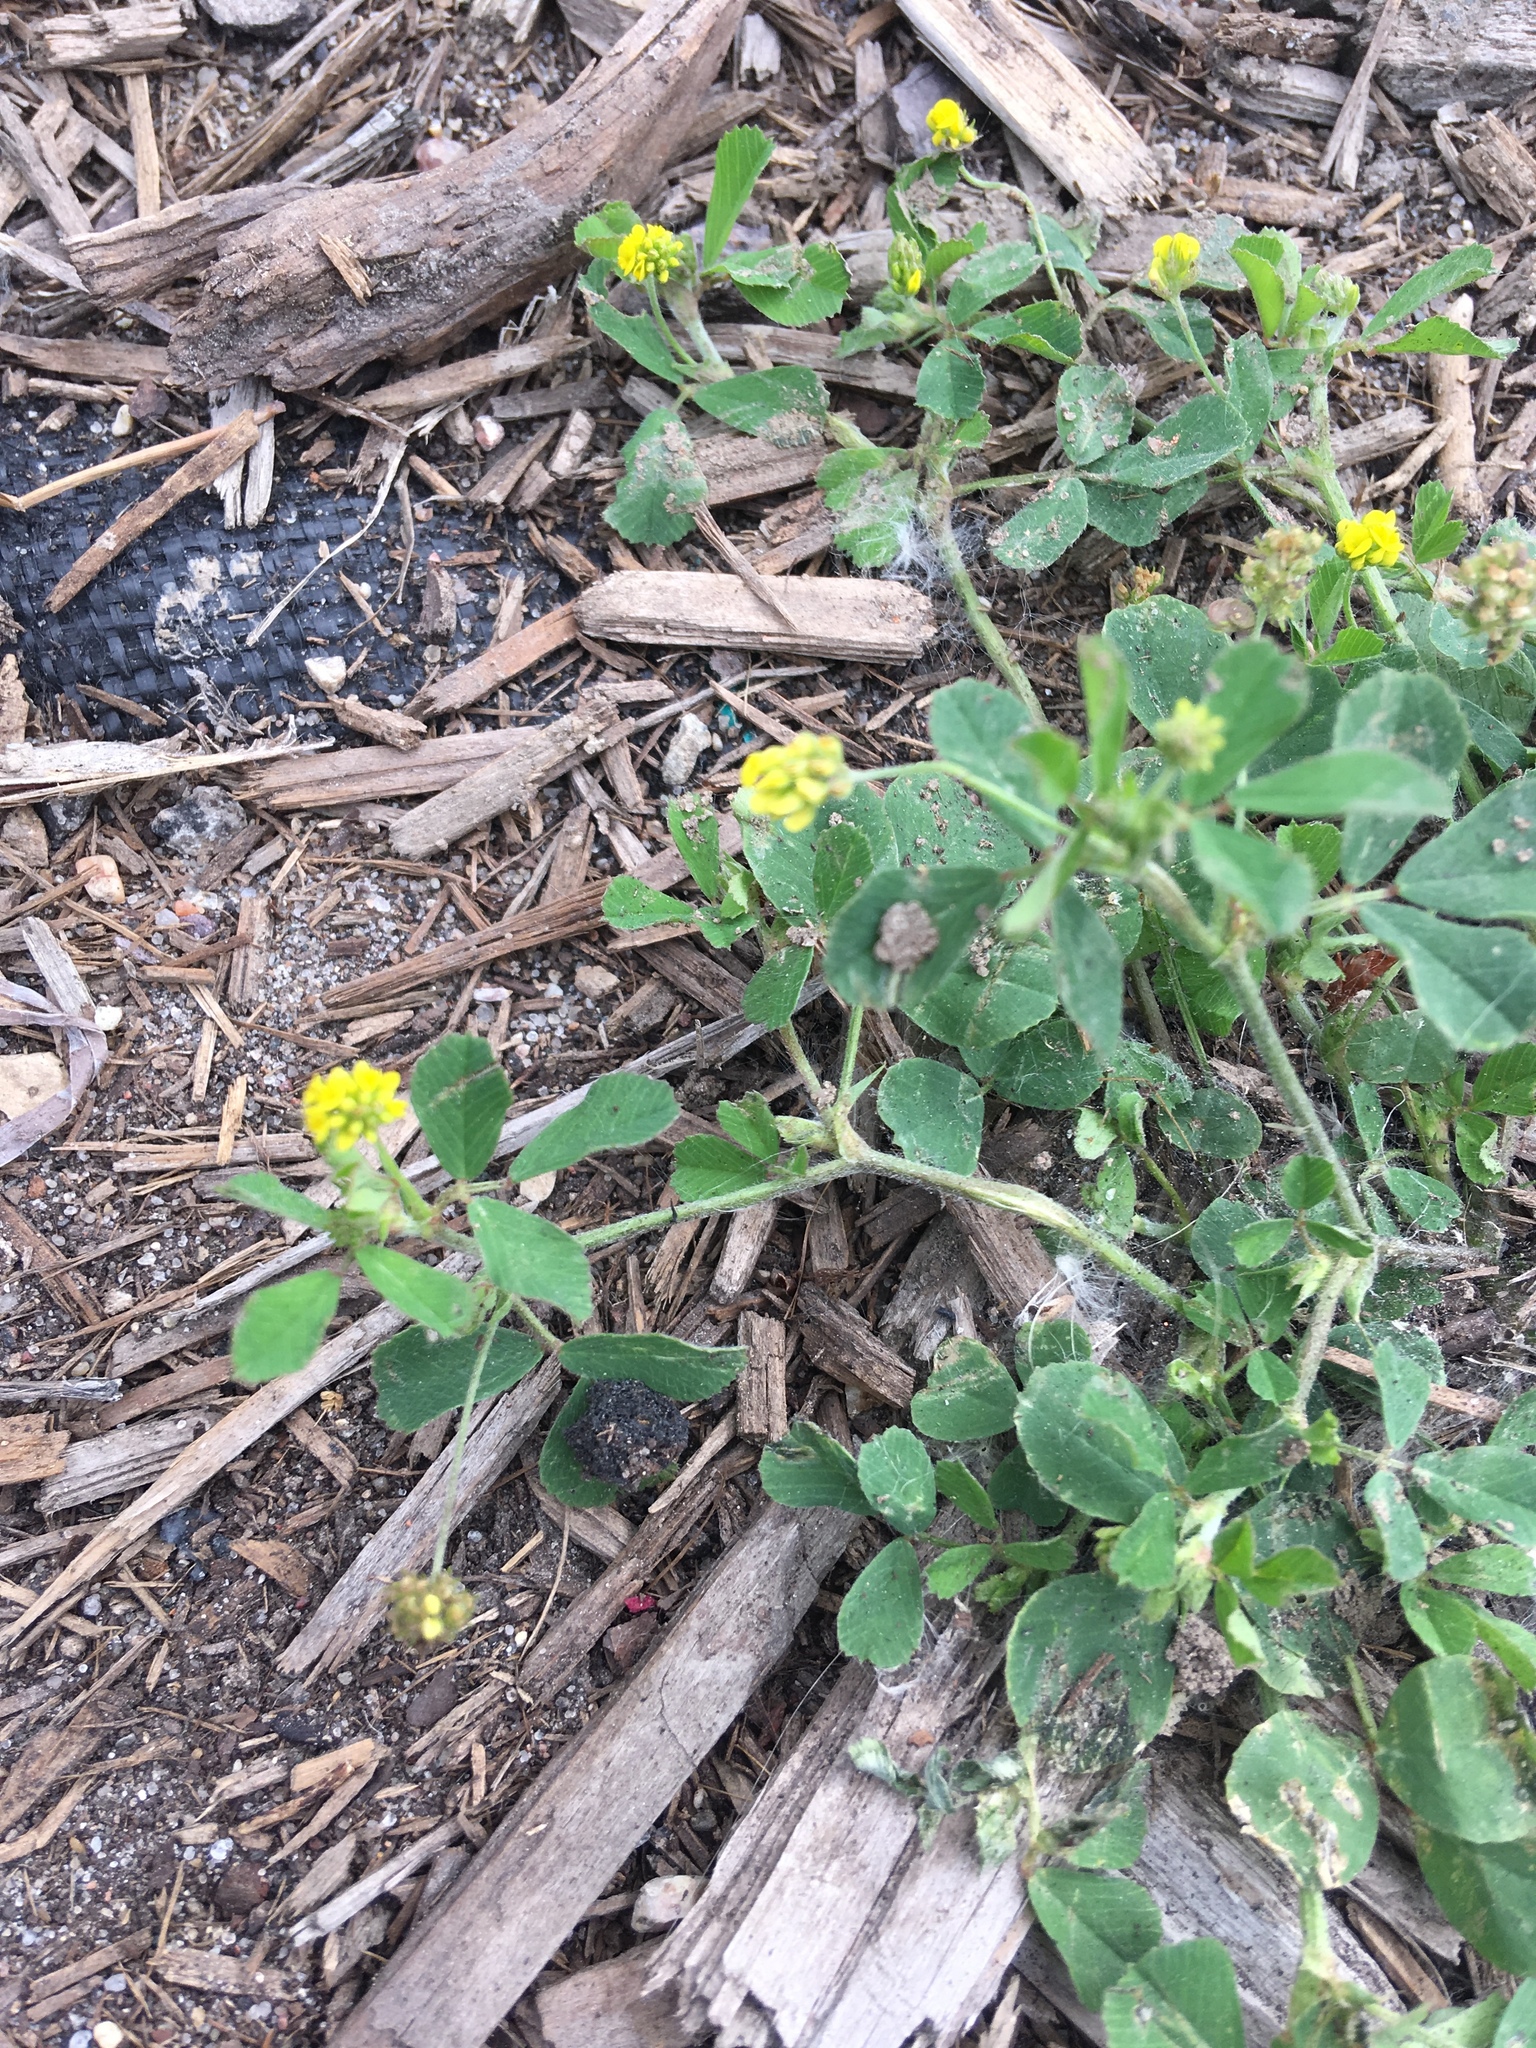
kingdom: Plantae
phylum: Tracheophyta
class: Magnoliopsida
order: Fabales
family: Fabaceae
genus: Medicago
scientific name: Medicago lupulina
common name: Black medick
